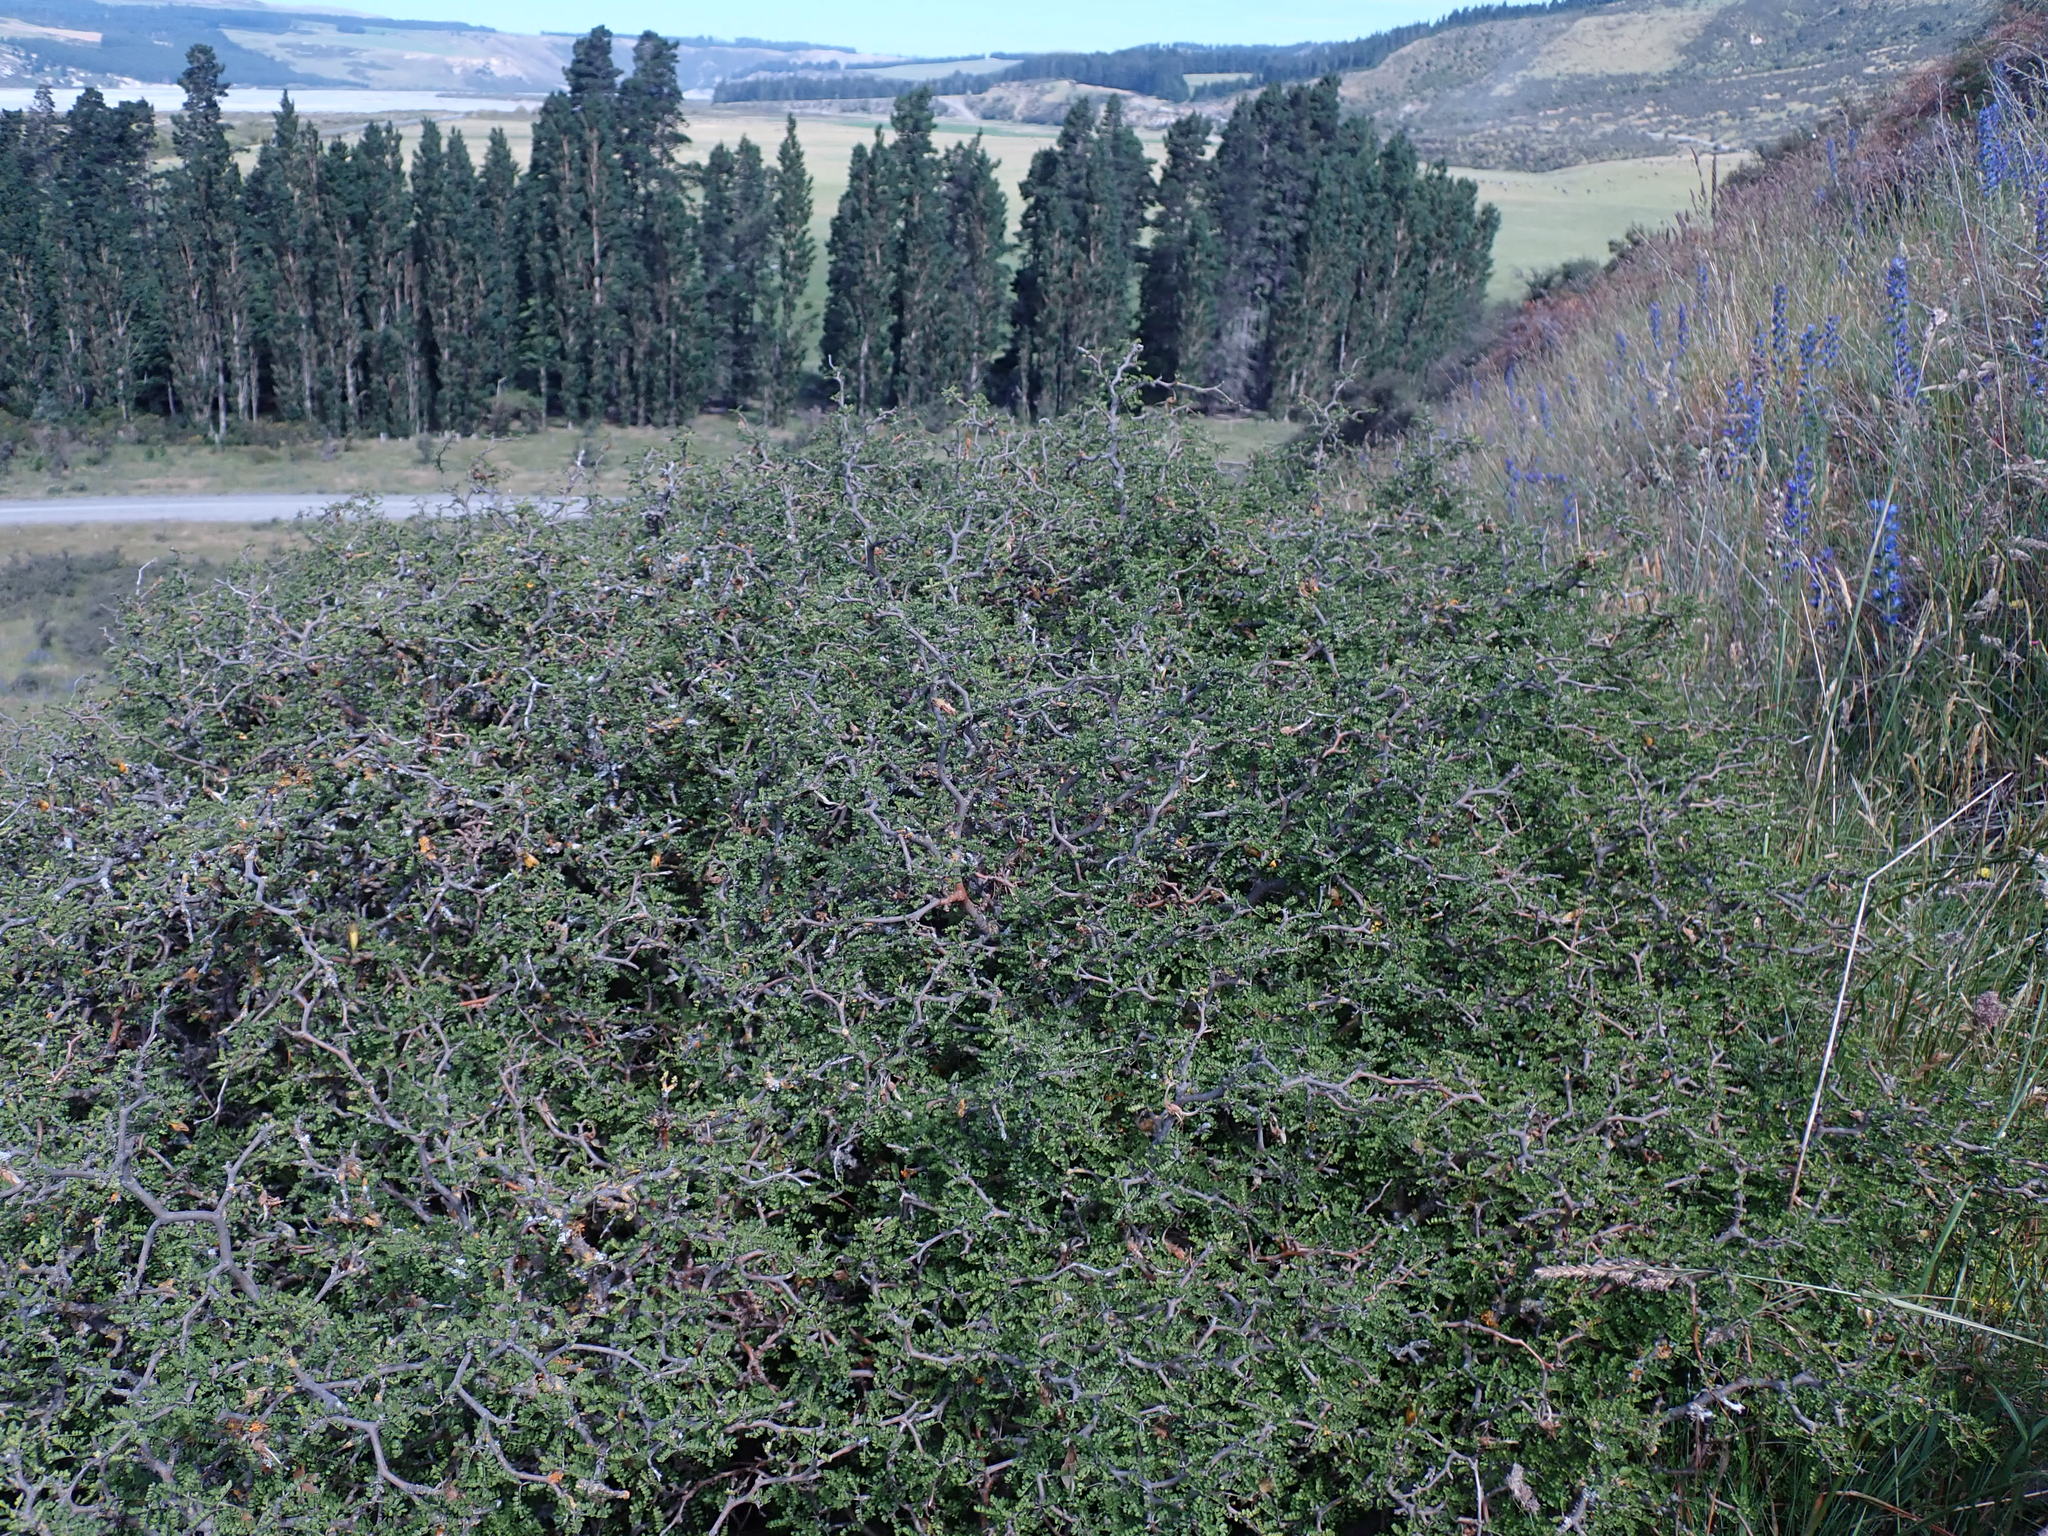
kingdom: Plantae
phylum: Tracheophyta
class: Magnoliopsida
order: Fabales
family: Fabaceae
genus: Sophora
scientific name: Sophora prostrata
